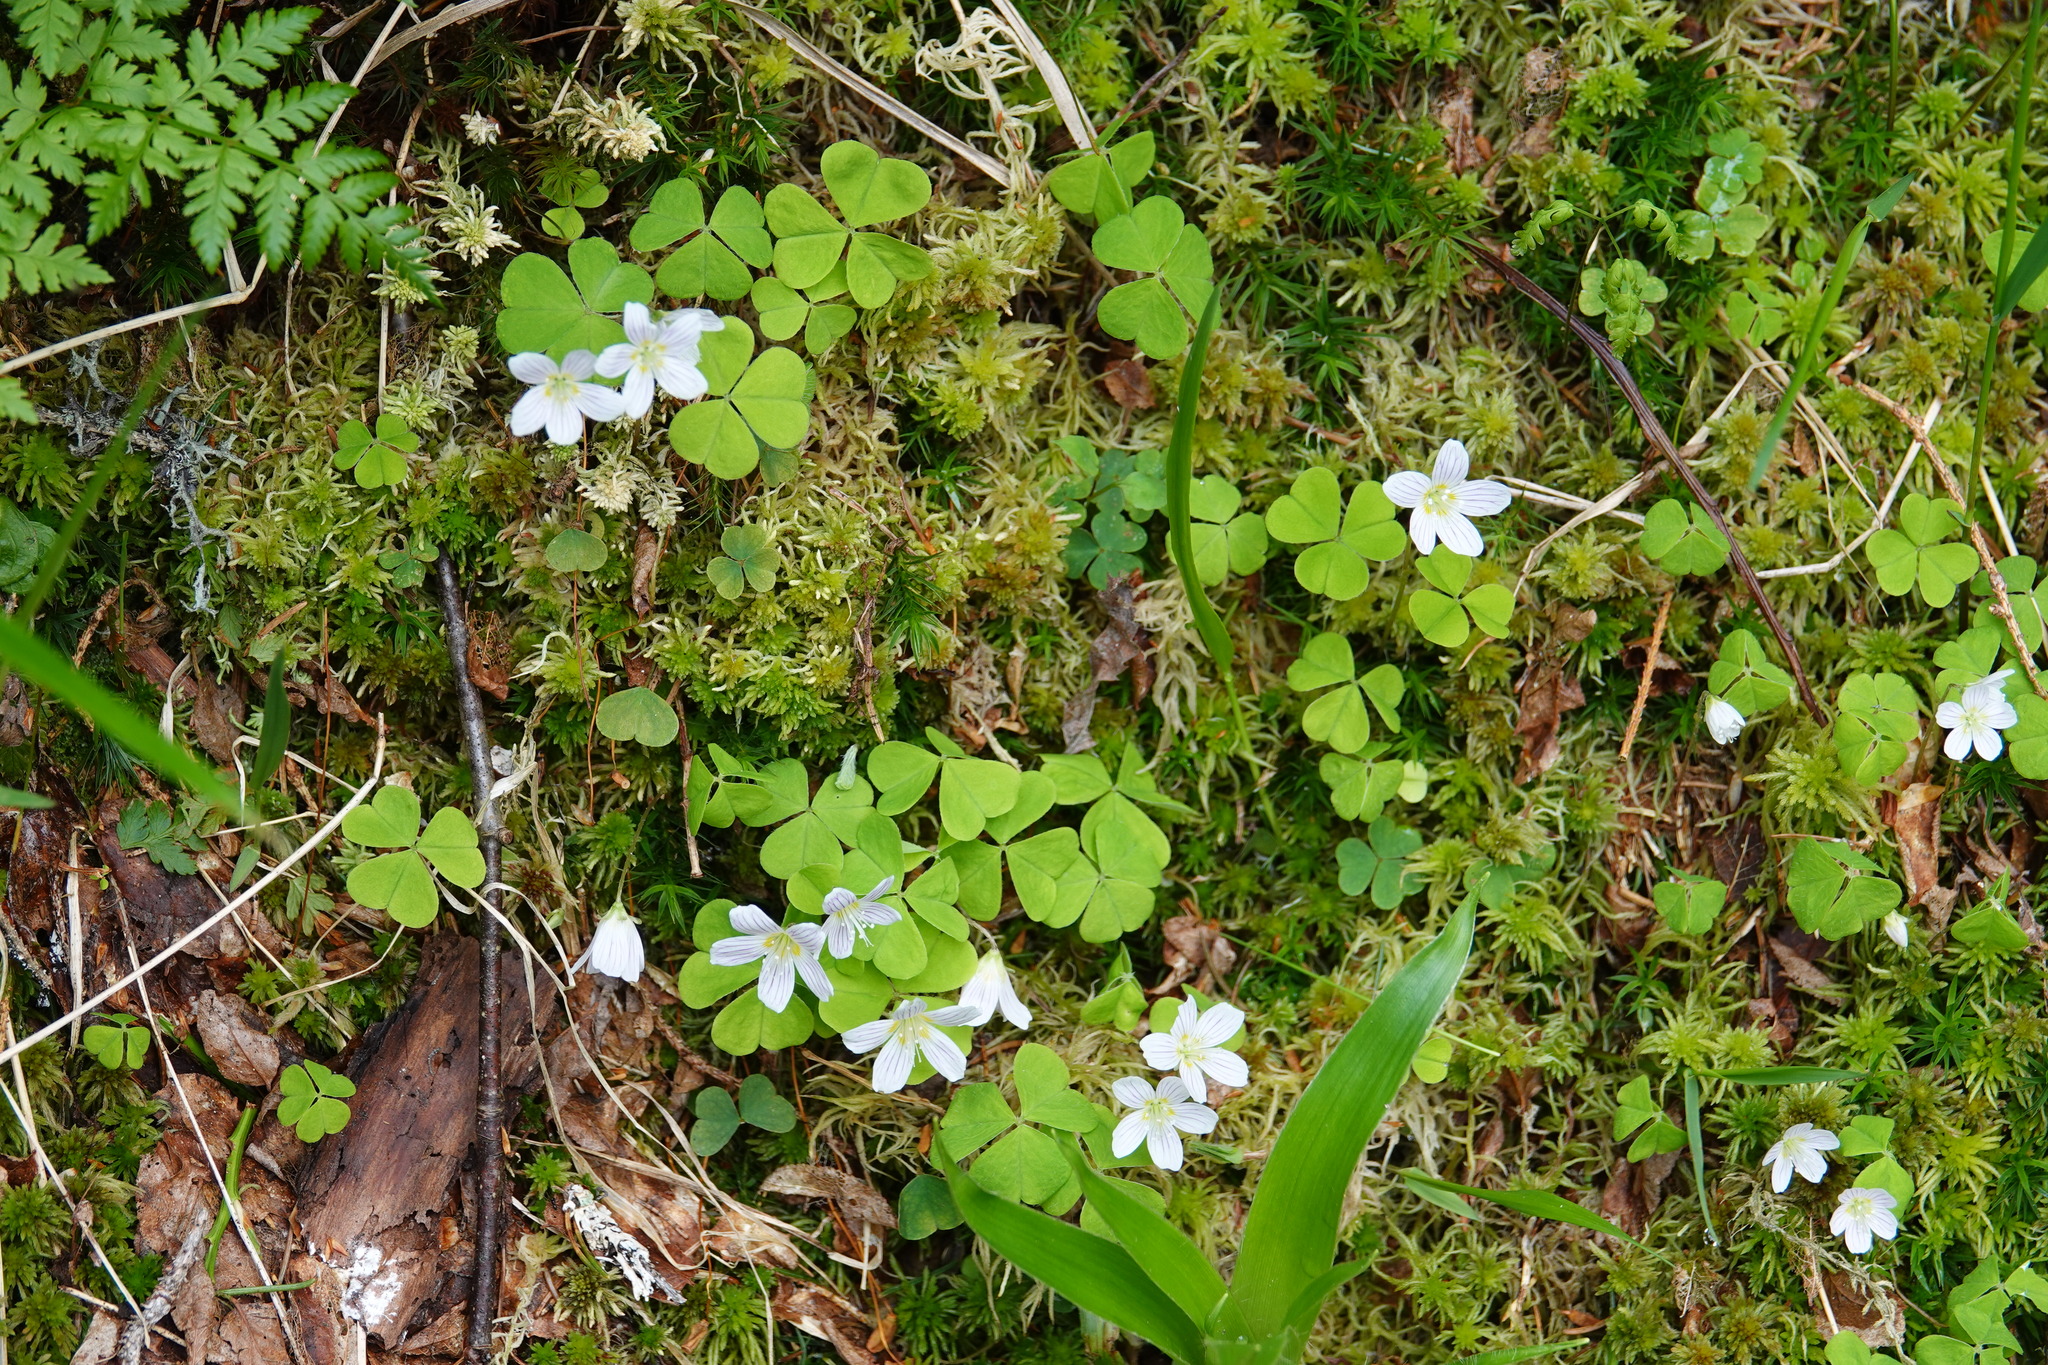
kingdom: Plantae
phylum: Tracheophyta
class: Magnoliopsida
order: Oxalidales
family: Oxalidaceae
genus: Oxalis
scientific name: Oxalis acetosella
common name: Wood-sorrel
